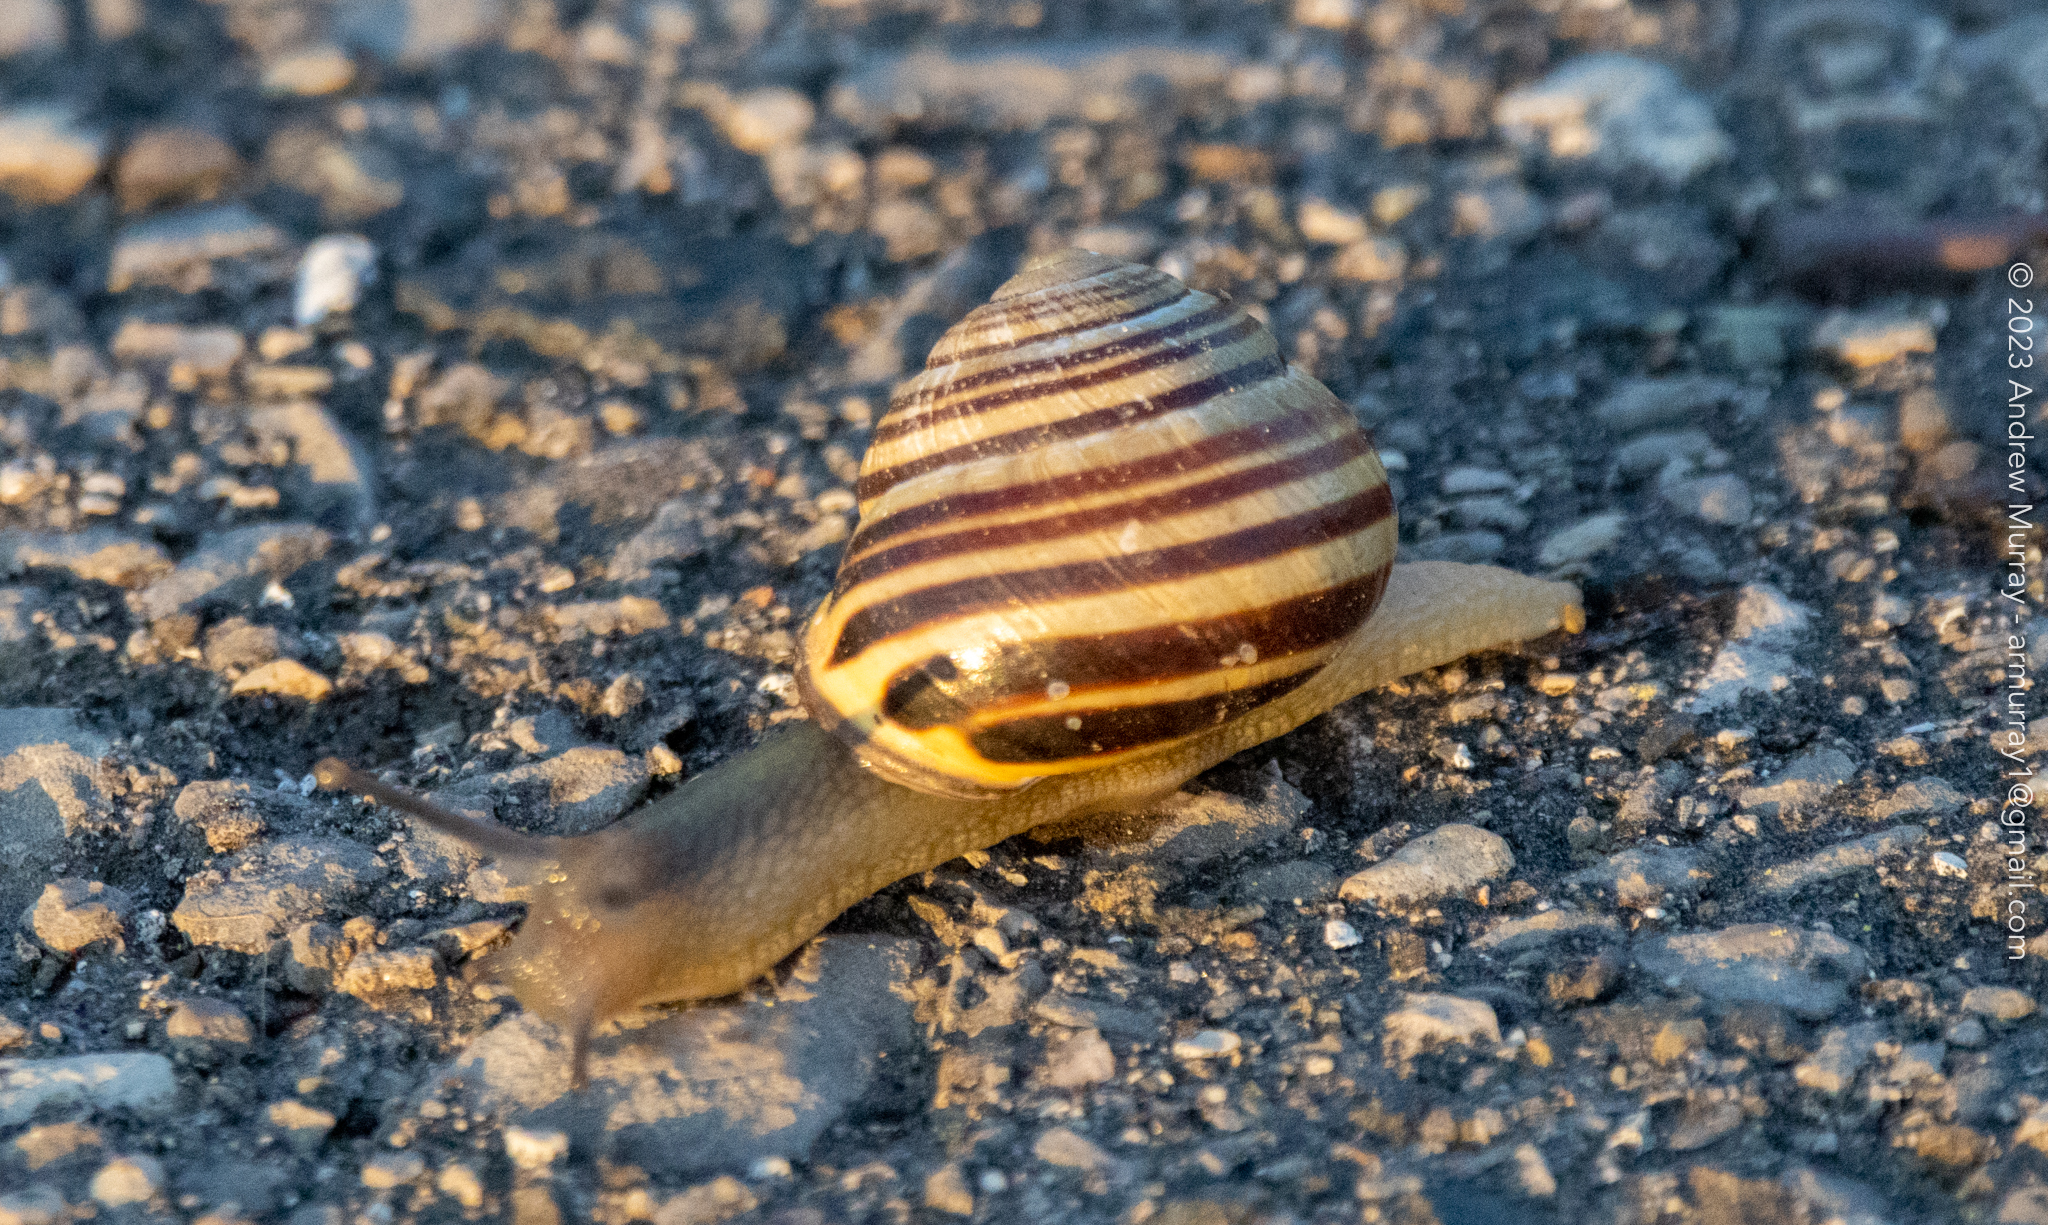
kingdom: Animalia
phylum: Mollusca
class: Gastropoda
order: Stylommatophora
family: Helicidae
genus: Cepaea
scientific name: Cepaea nemoralis
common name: Grovesnail
